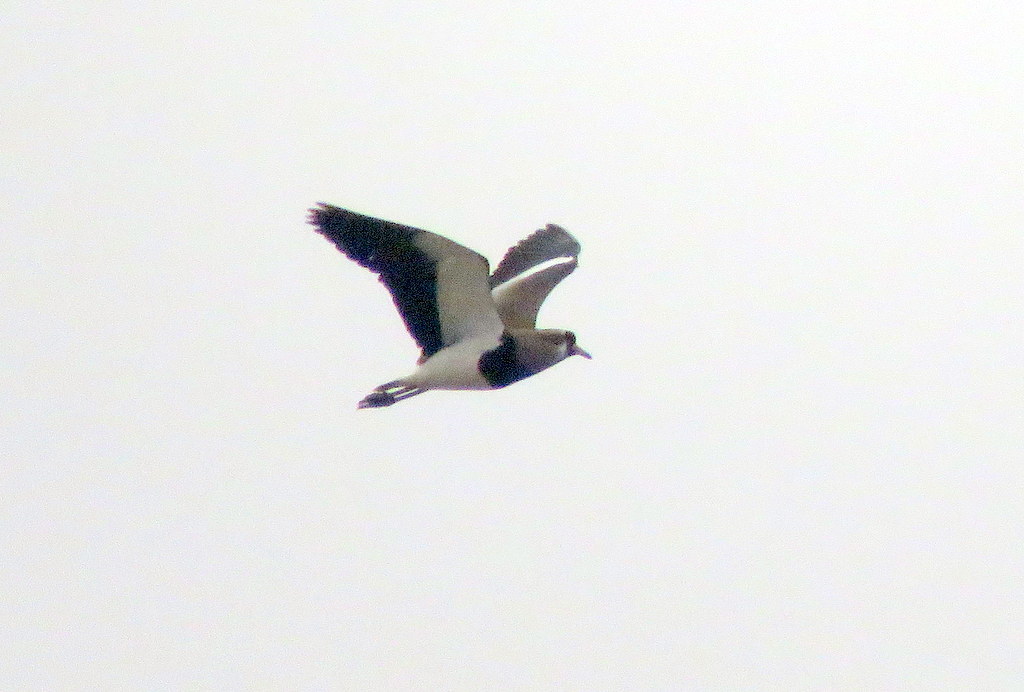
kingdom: Animalia
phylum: Chordata
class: Aves
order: Charadriiformes
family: Charadriidae
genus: Vanellus
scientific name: Vanellus chilensis
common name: Southern lapwing
